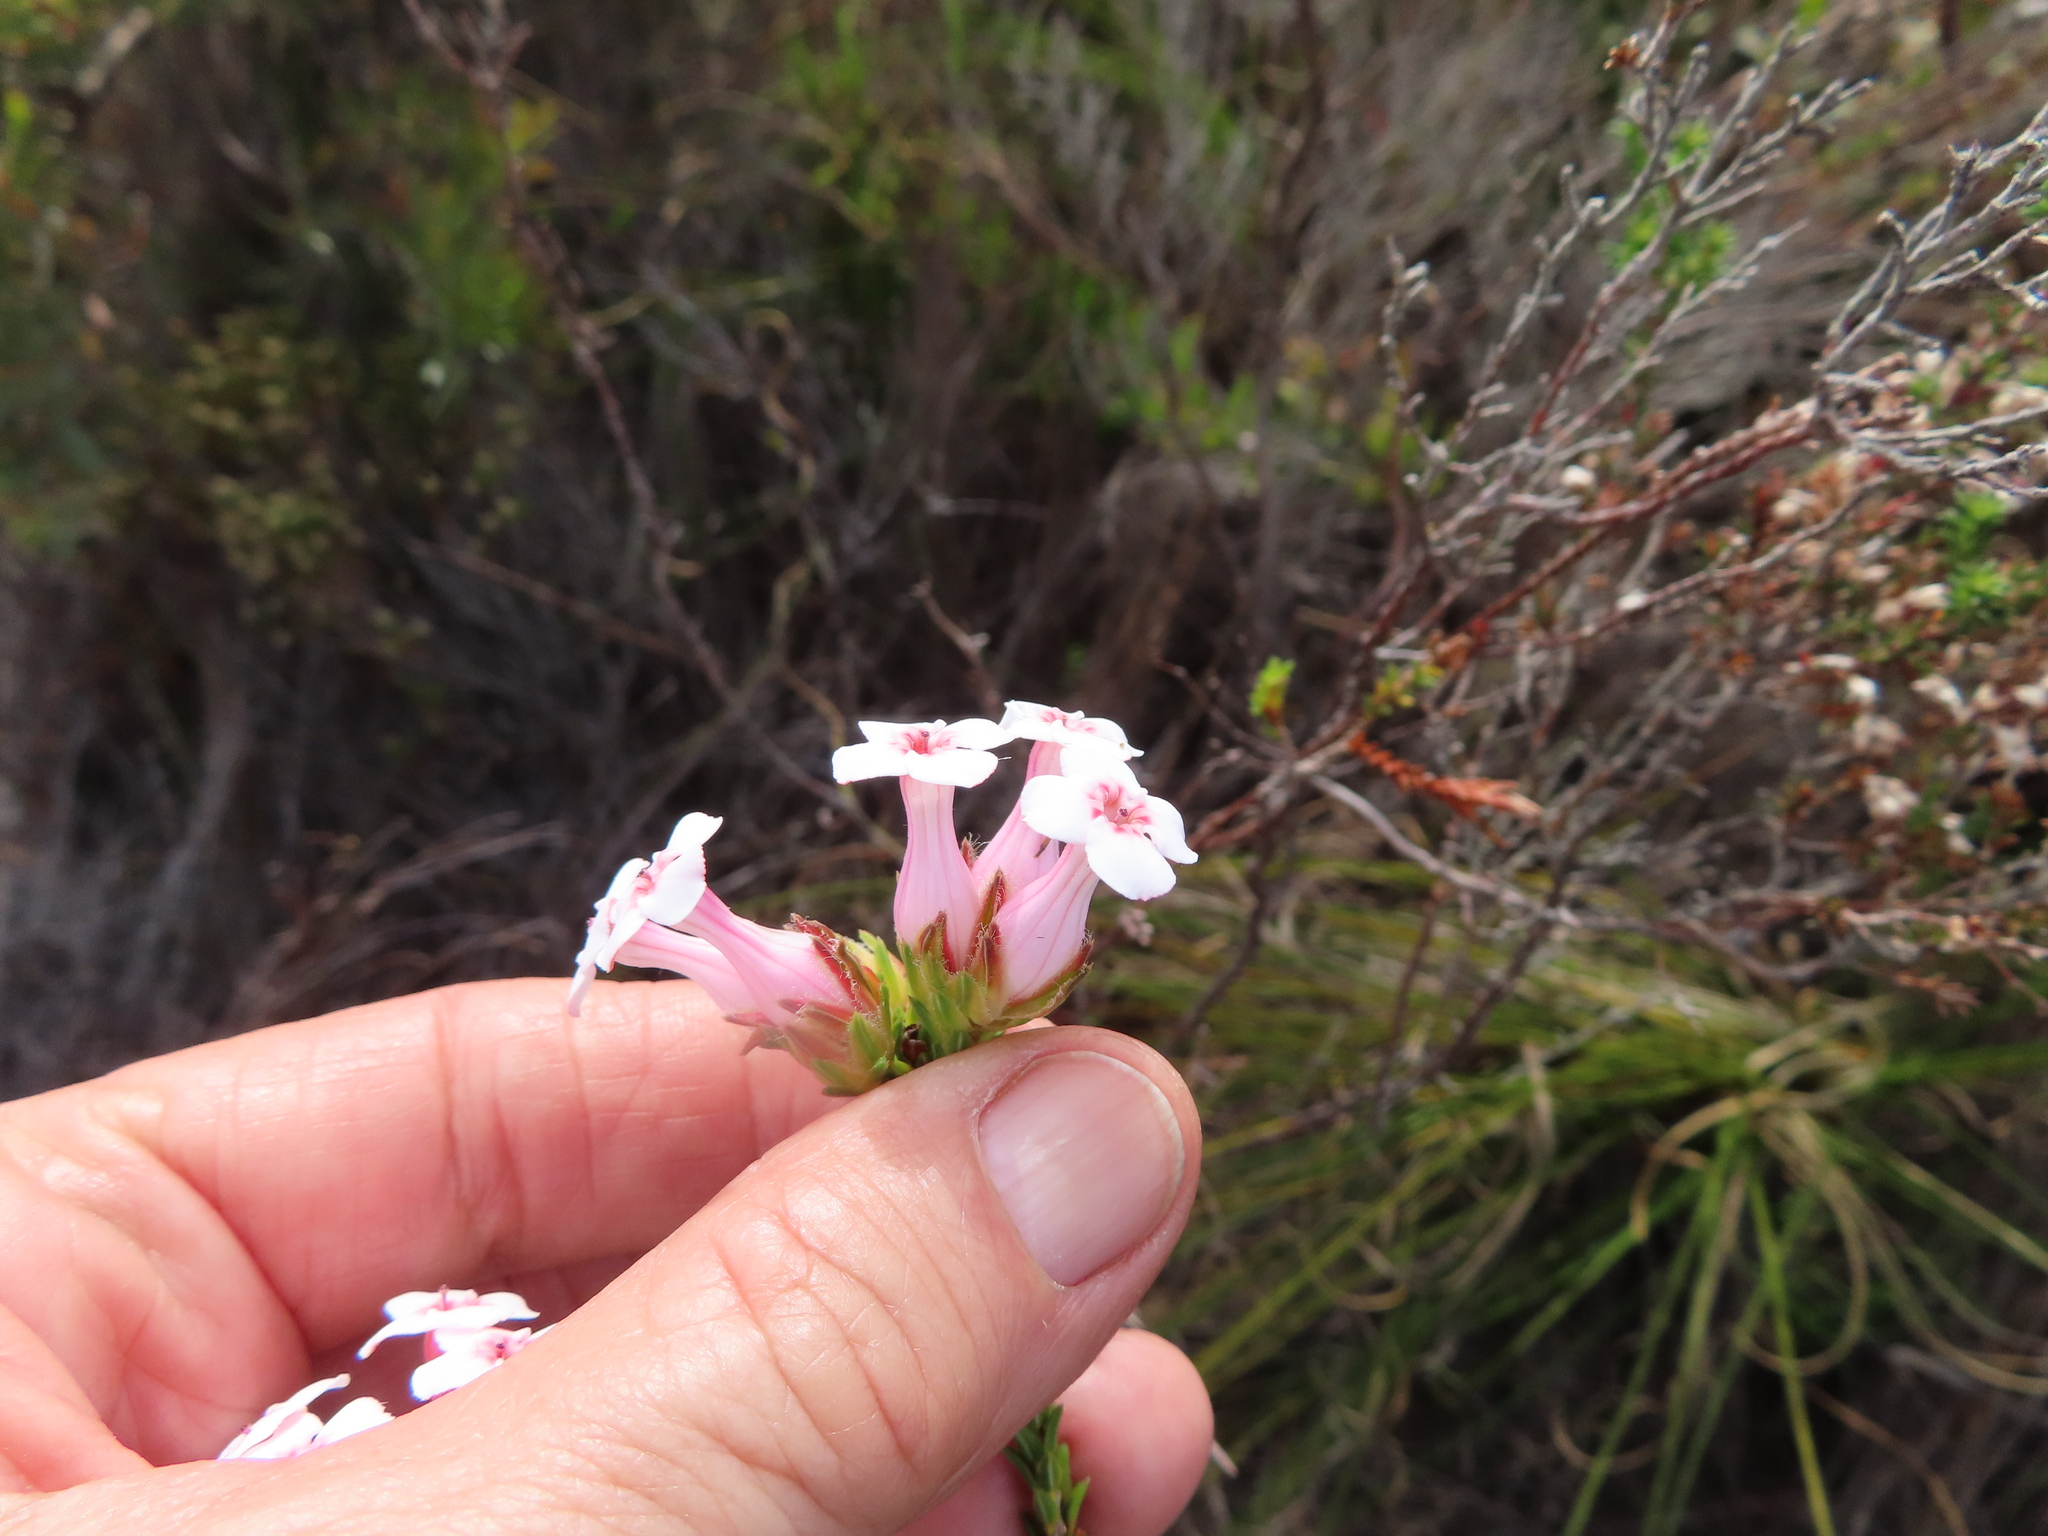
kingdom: Plantae
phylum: Tracheophyta
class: Magnoliopsida
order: Ericales
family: Ericaceae
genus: Erica
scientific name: Erica ampullacea
